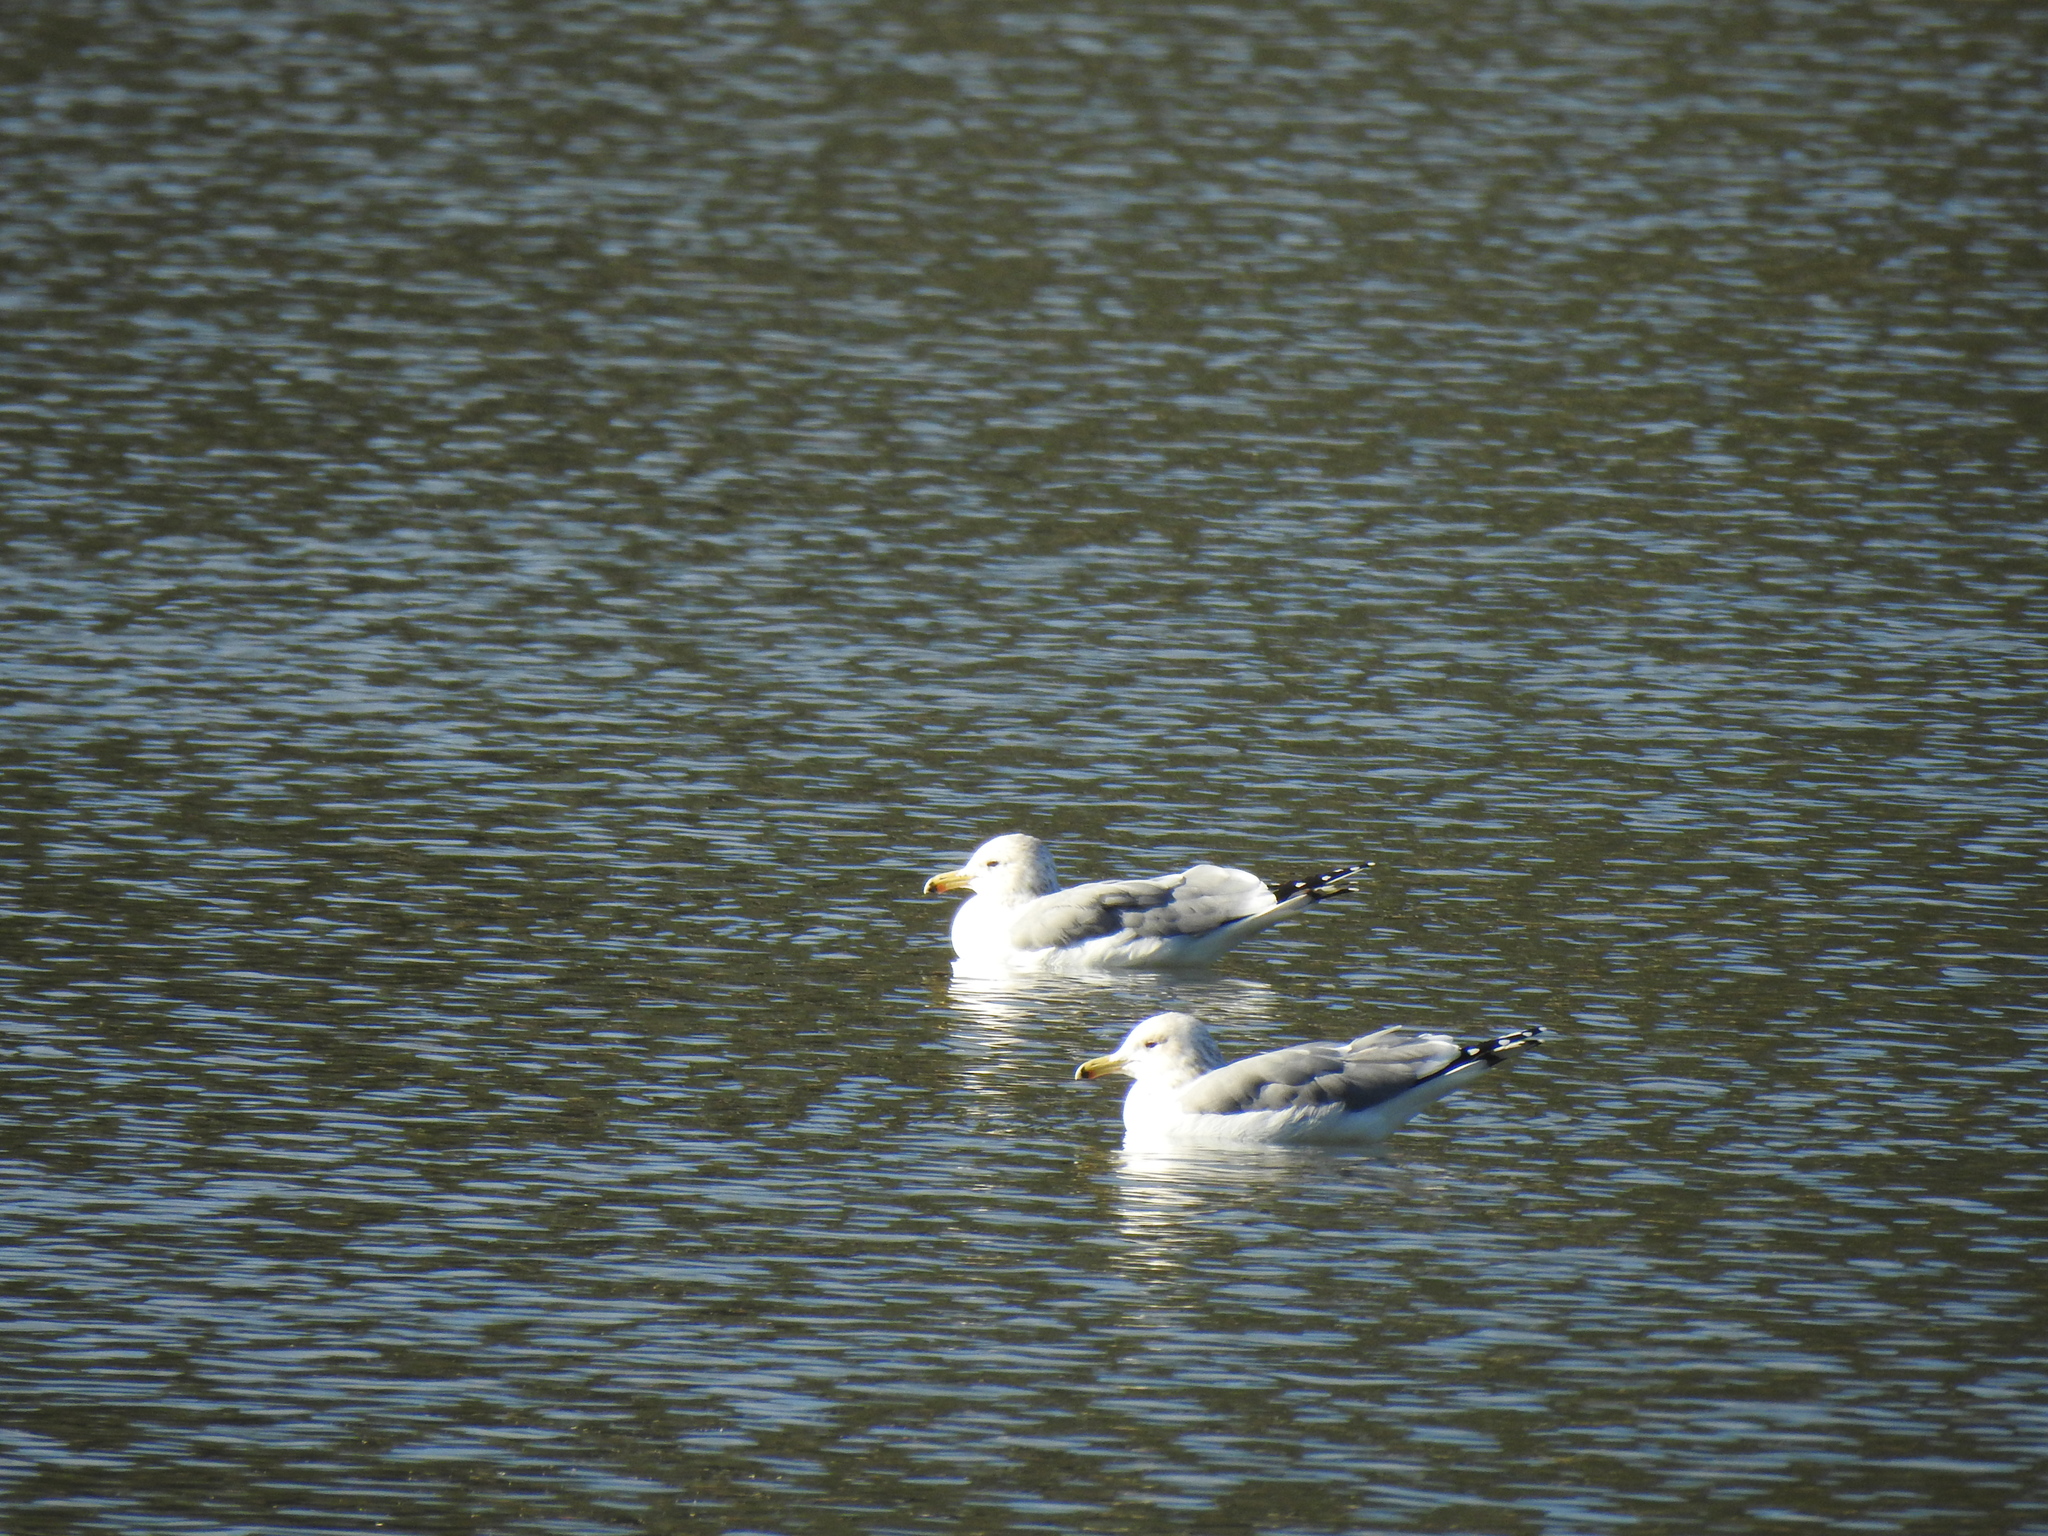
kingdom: Animalia
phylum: Chordata
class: Aves
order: Charadriiformes
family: Laridae
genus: Larus
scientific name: Larus californicus
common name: California gull
